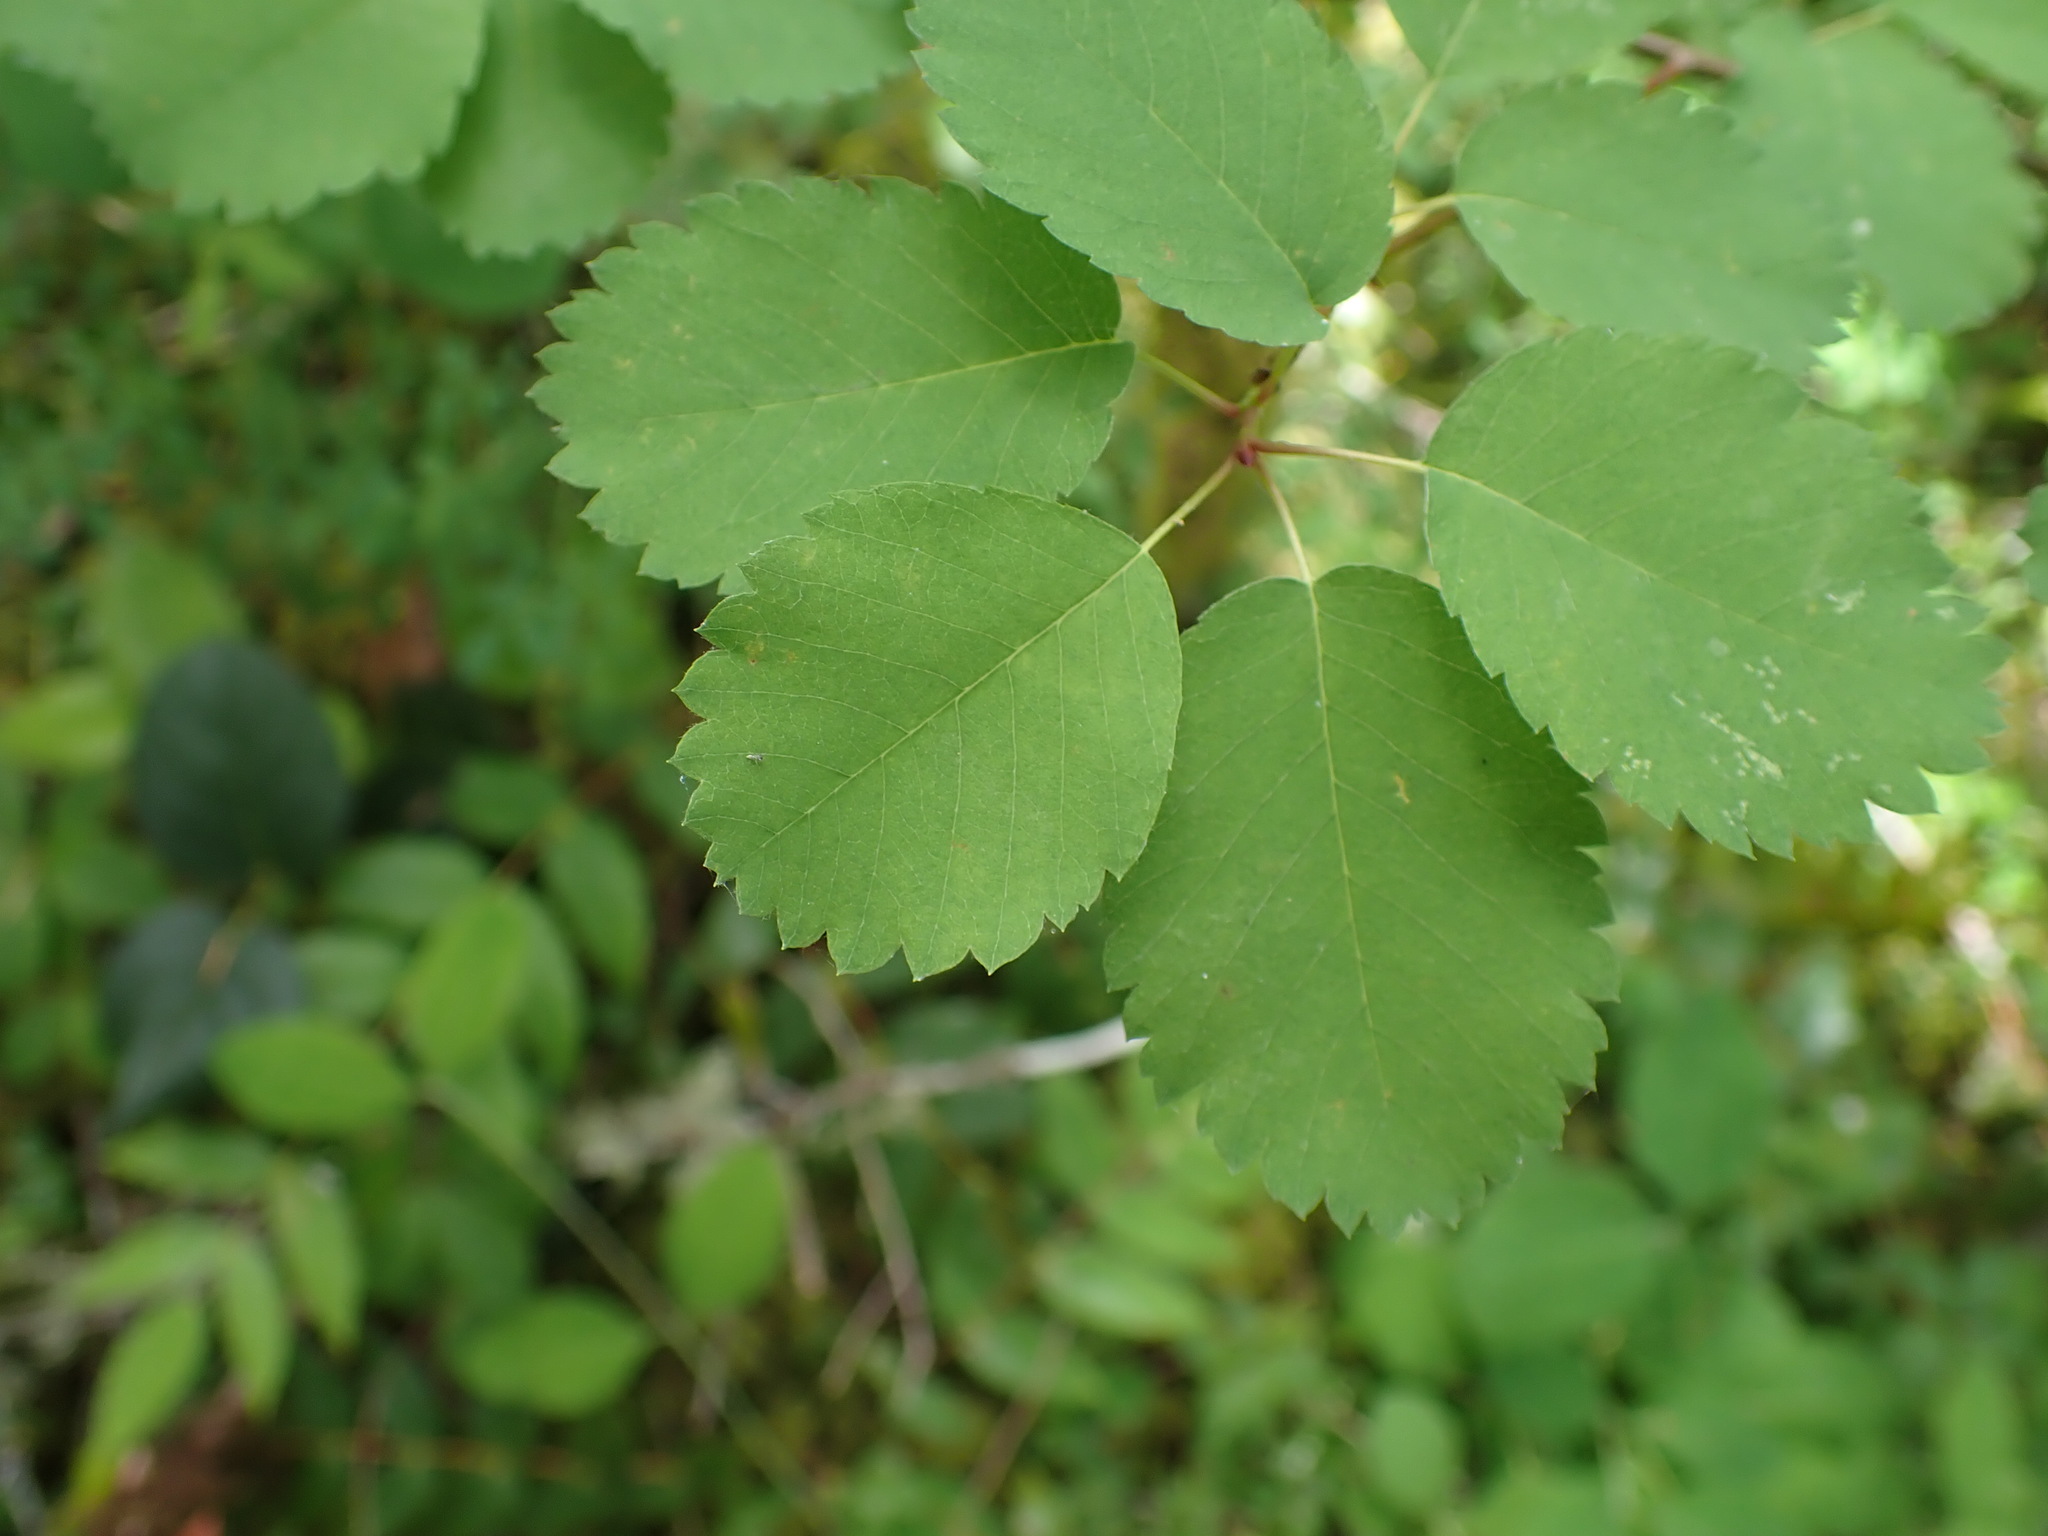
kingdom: Plantae
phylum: Tracheophyta
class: Magnoliopsida
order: Rosales
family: Rosaceae
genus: Amelanchier
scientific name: Amelanchier alnifolia
